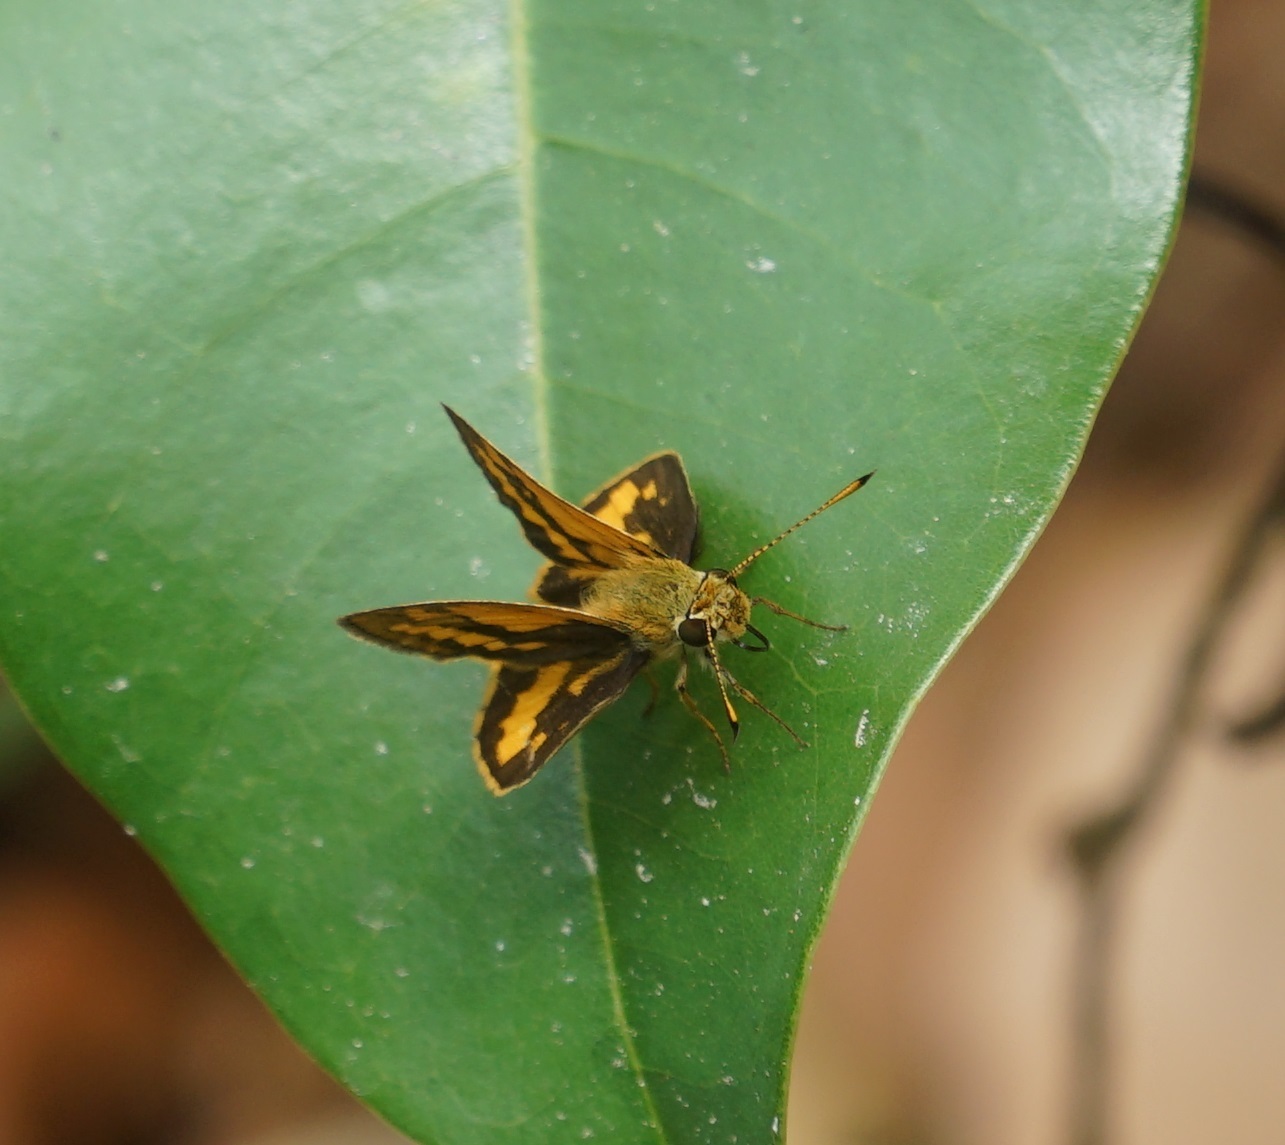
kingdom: Animalia
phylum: Arthropoda
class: Insecta
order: Lepidoptera
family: Hesperiidae
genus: Suniana
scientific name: Suniana sunias
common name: Wide-brand grass-dart
